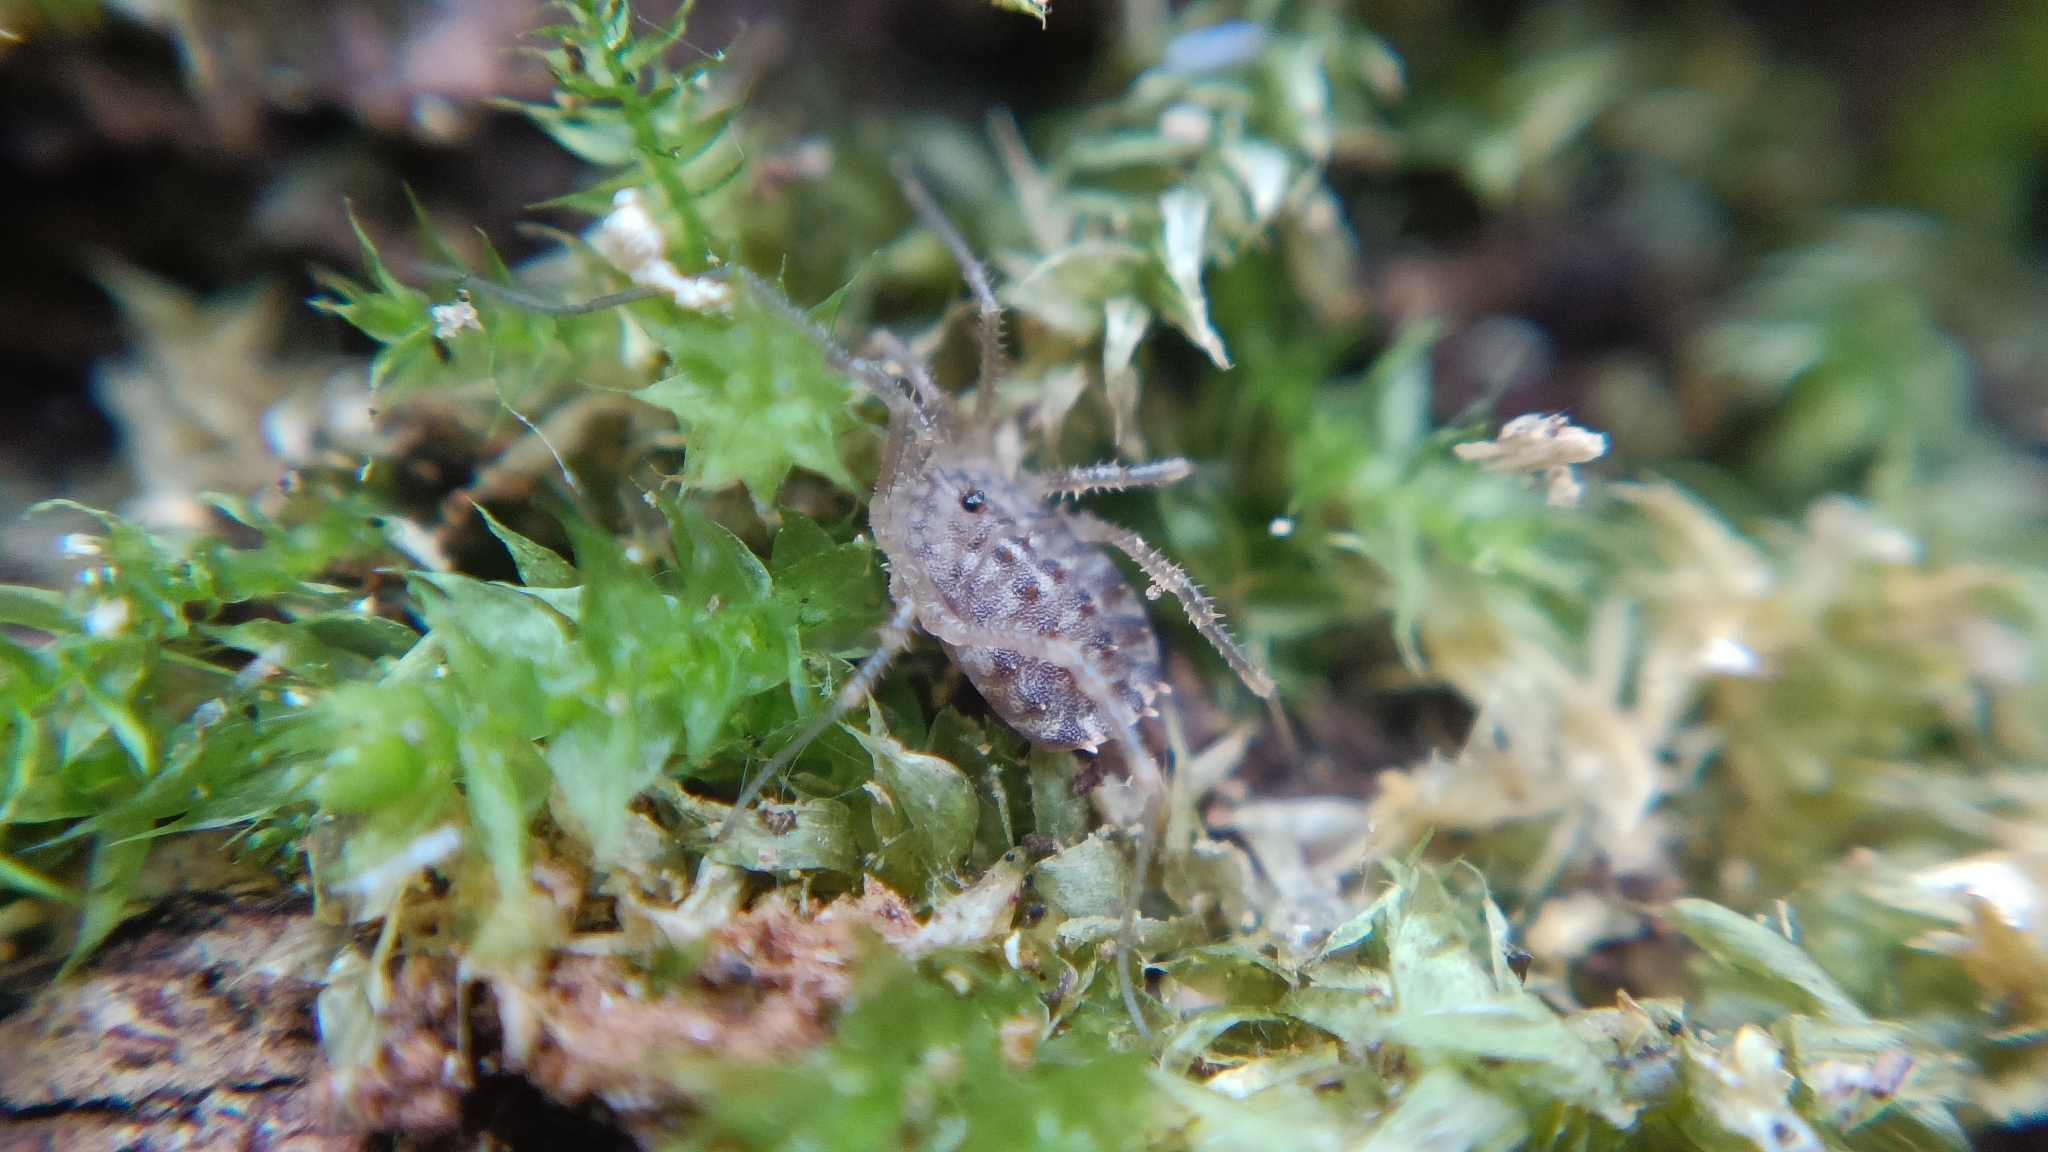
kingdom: Animalia
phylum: Arthropoda
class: Arachnida
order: Opiliones
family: Sclerosomatidae
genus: Homalenotus
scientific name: Homalenotus quadridentatus
